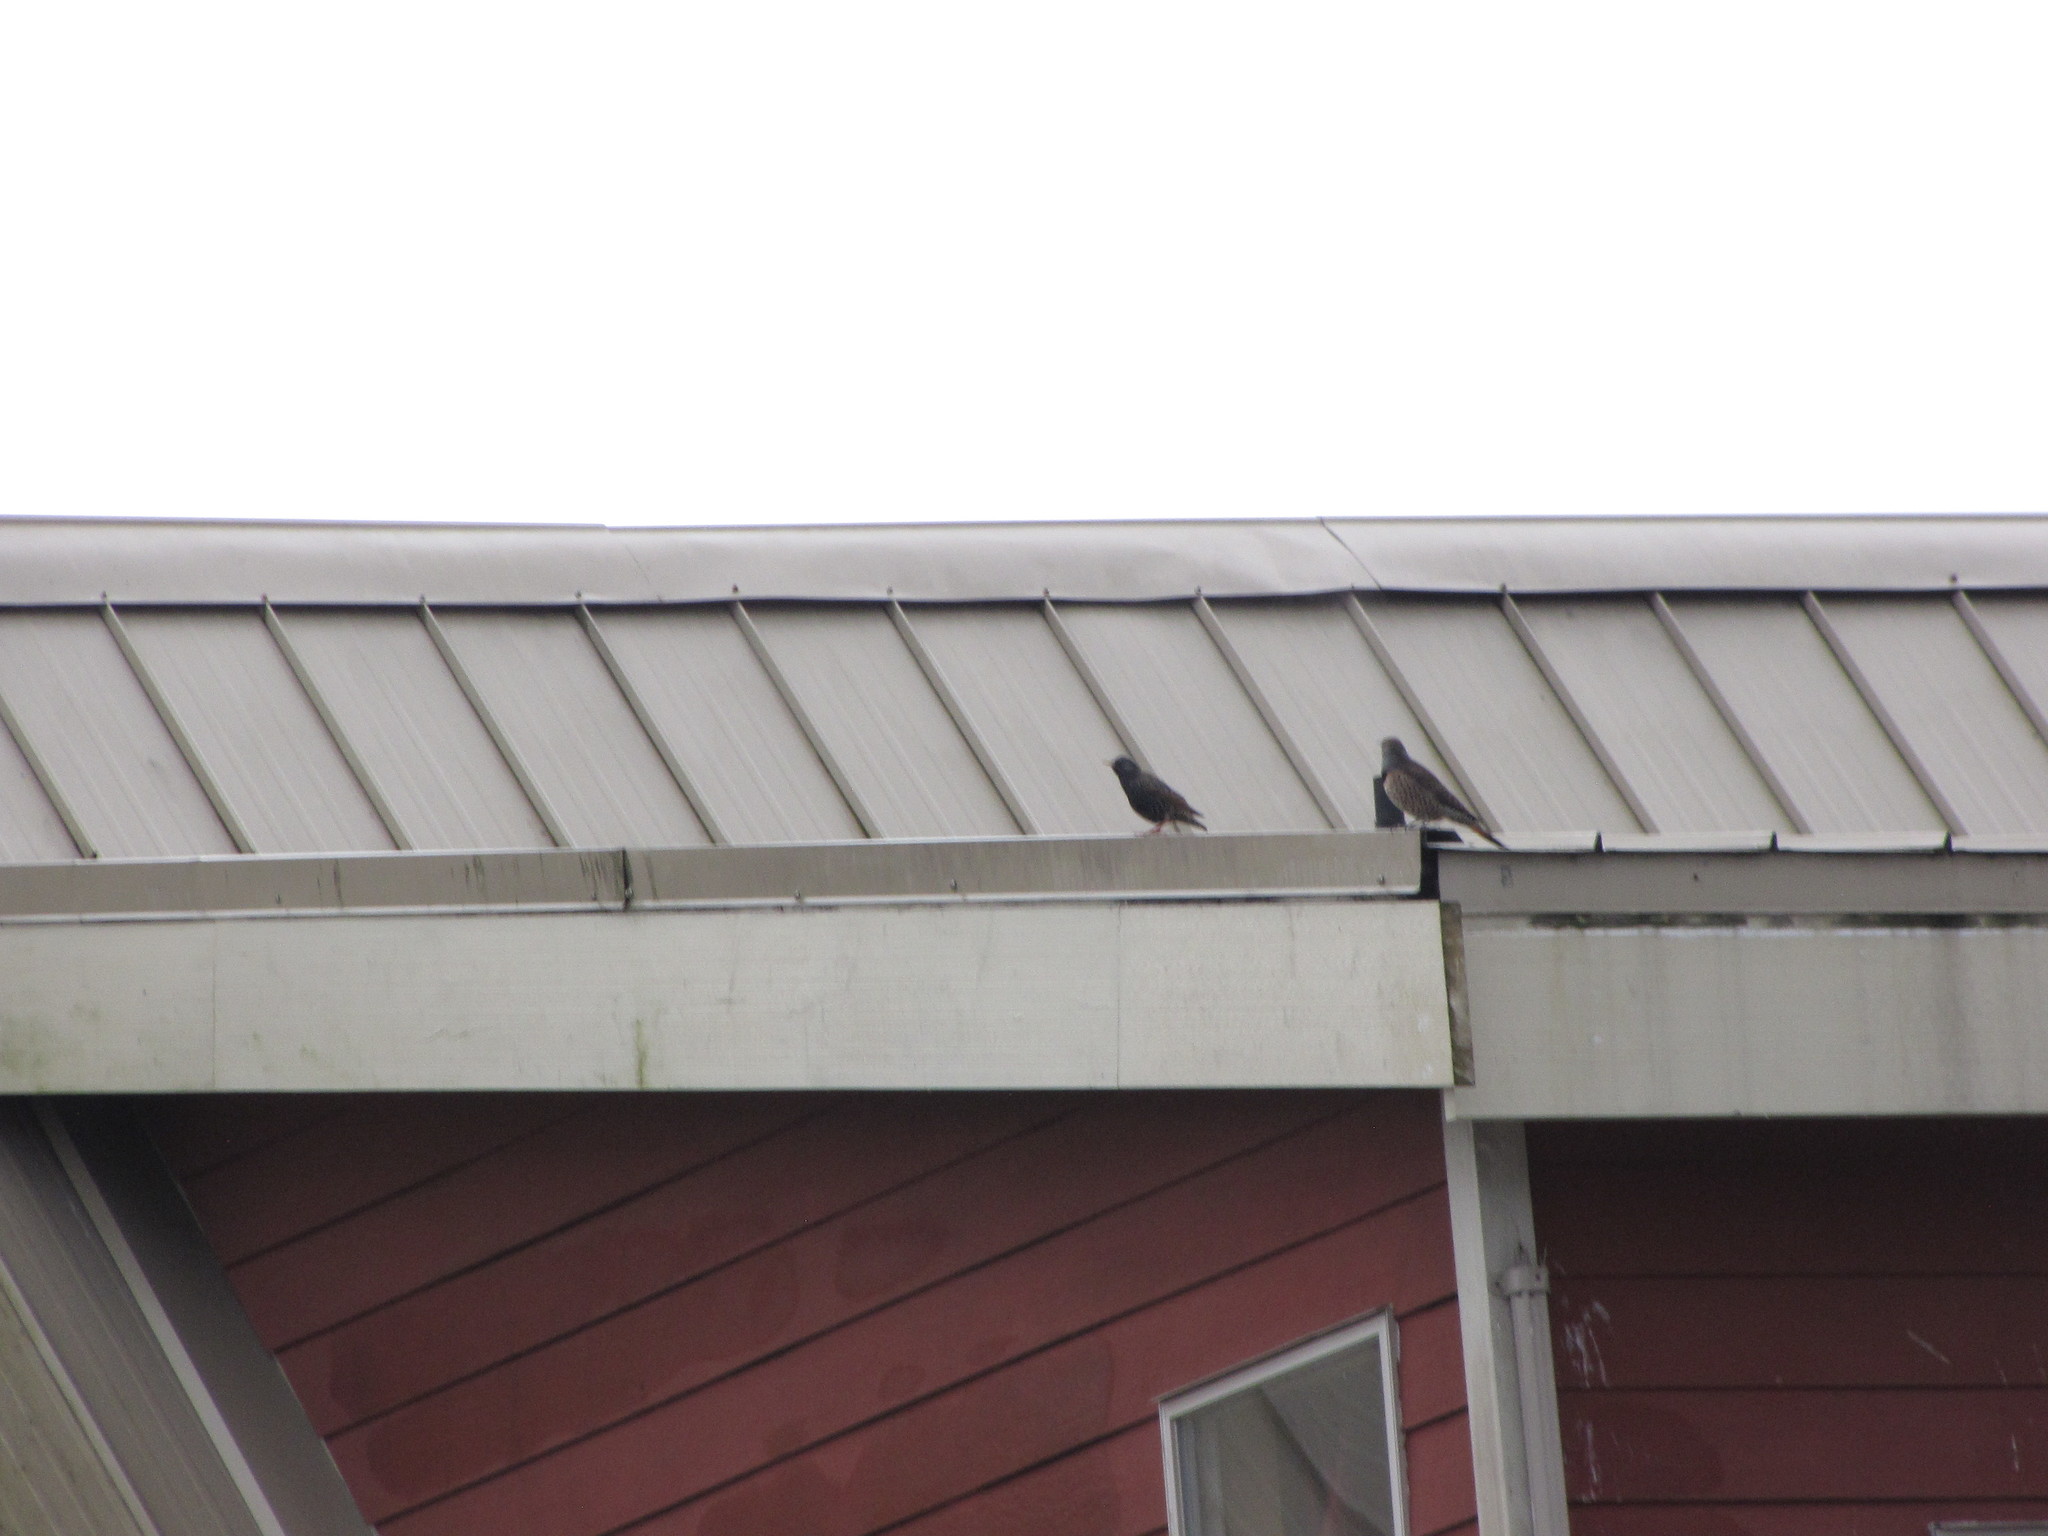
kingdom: Animalia
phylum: Chordata
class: Aves
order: Piciformes
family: Picidae
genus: Colaptes
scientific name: Colaptes auratus
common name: Northern flicker
